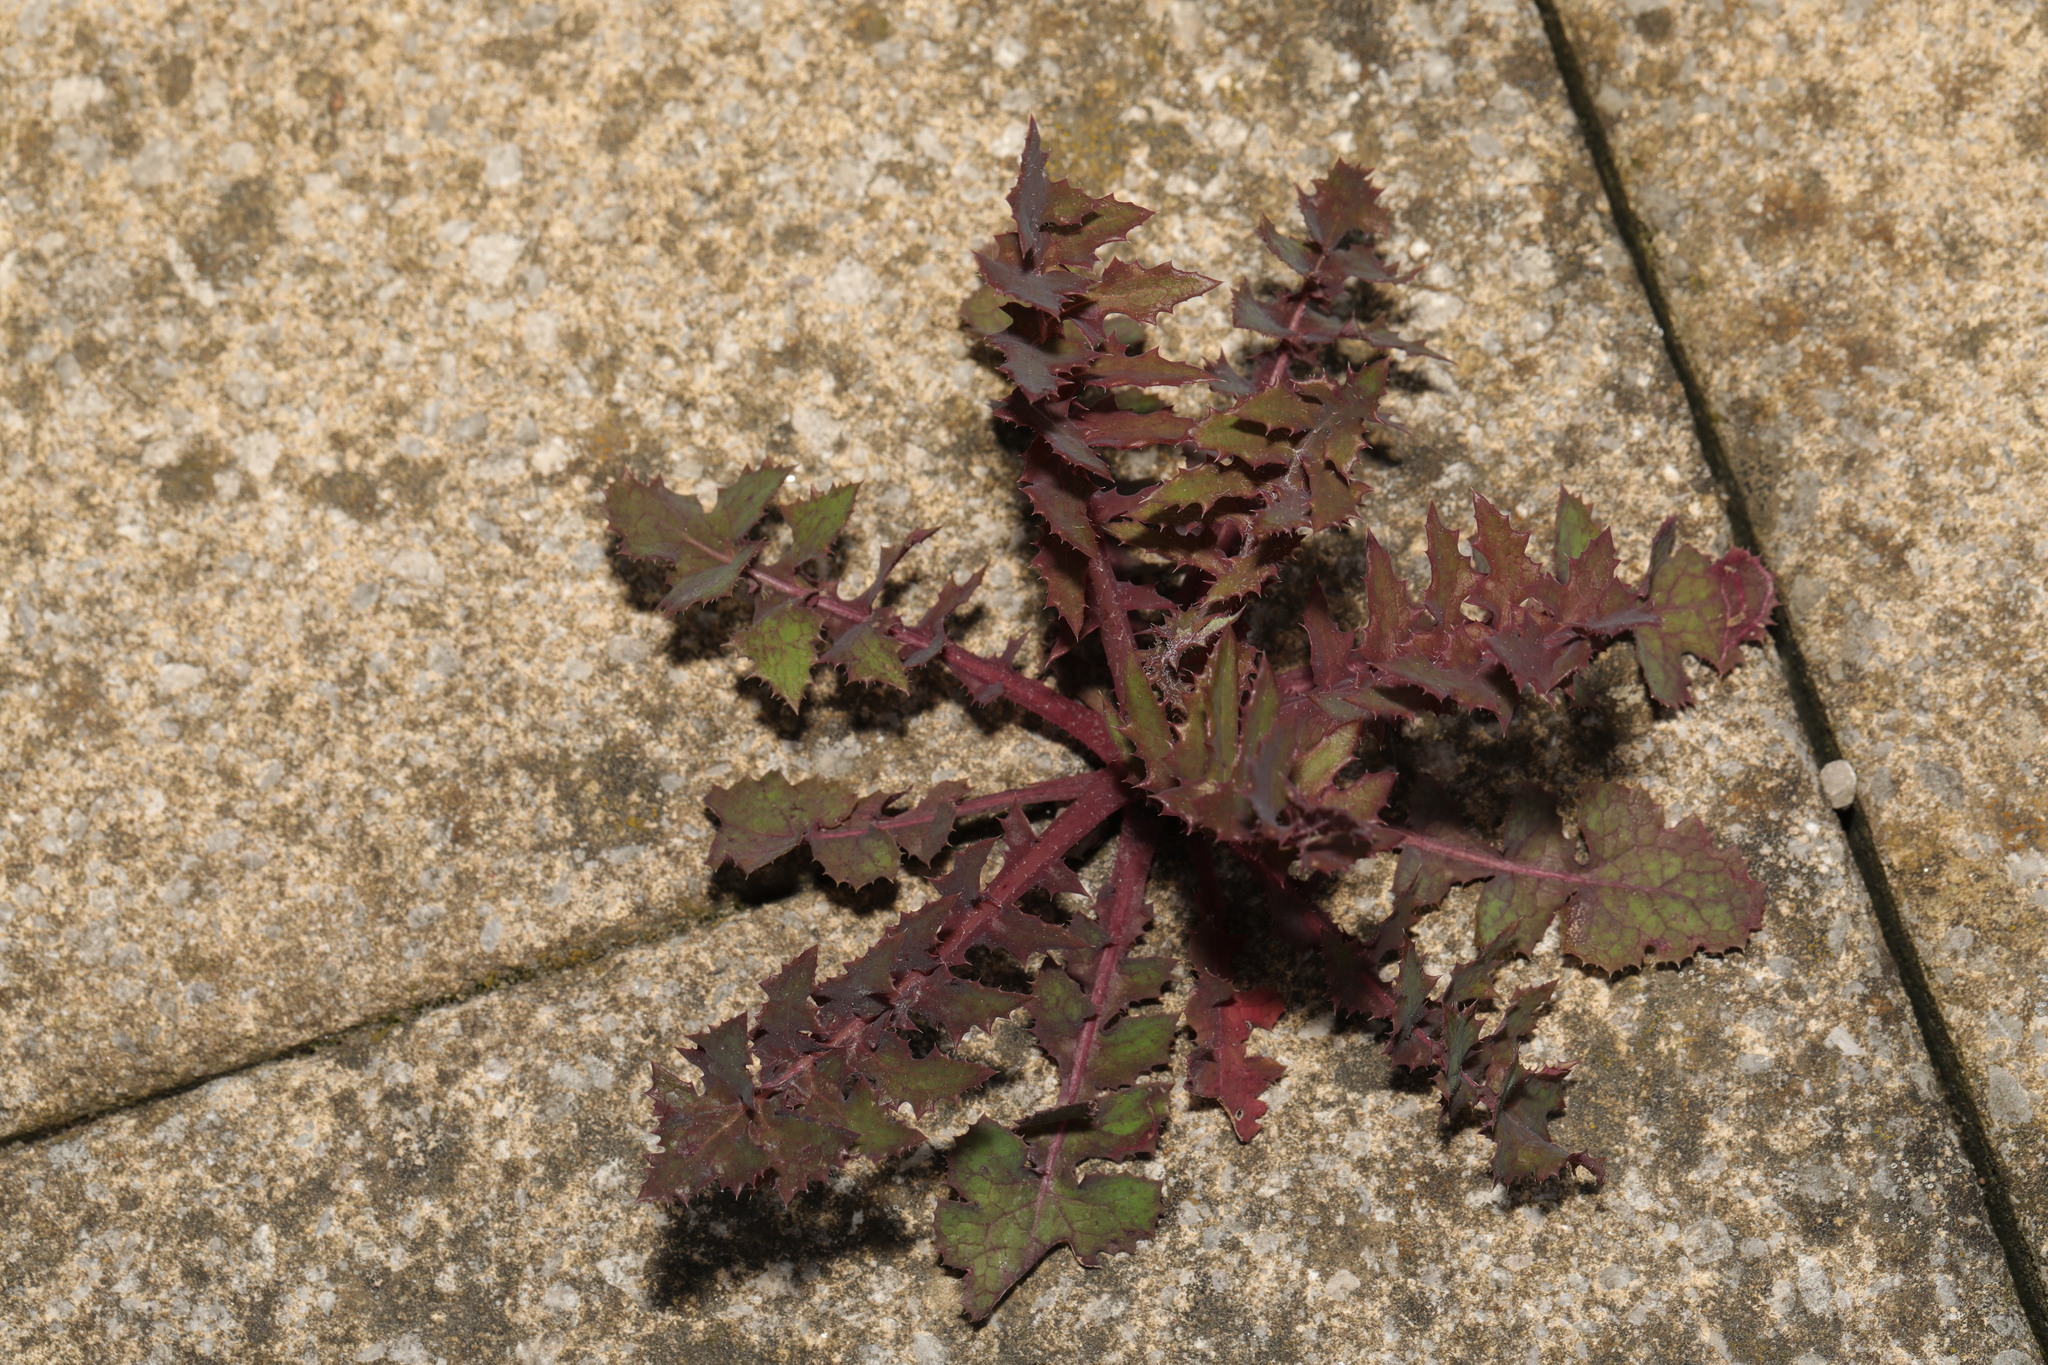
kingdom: Plantae
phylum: Tracheophyta
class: Magnoliopsida
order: Asterales
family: Asteraceae
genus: Sonchus
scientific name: Sonchus oleraceus
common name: Common sowthistle
